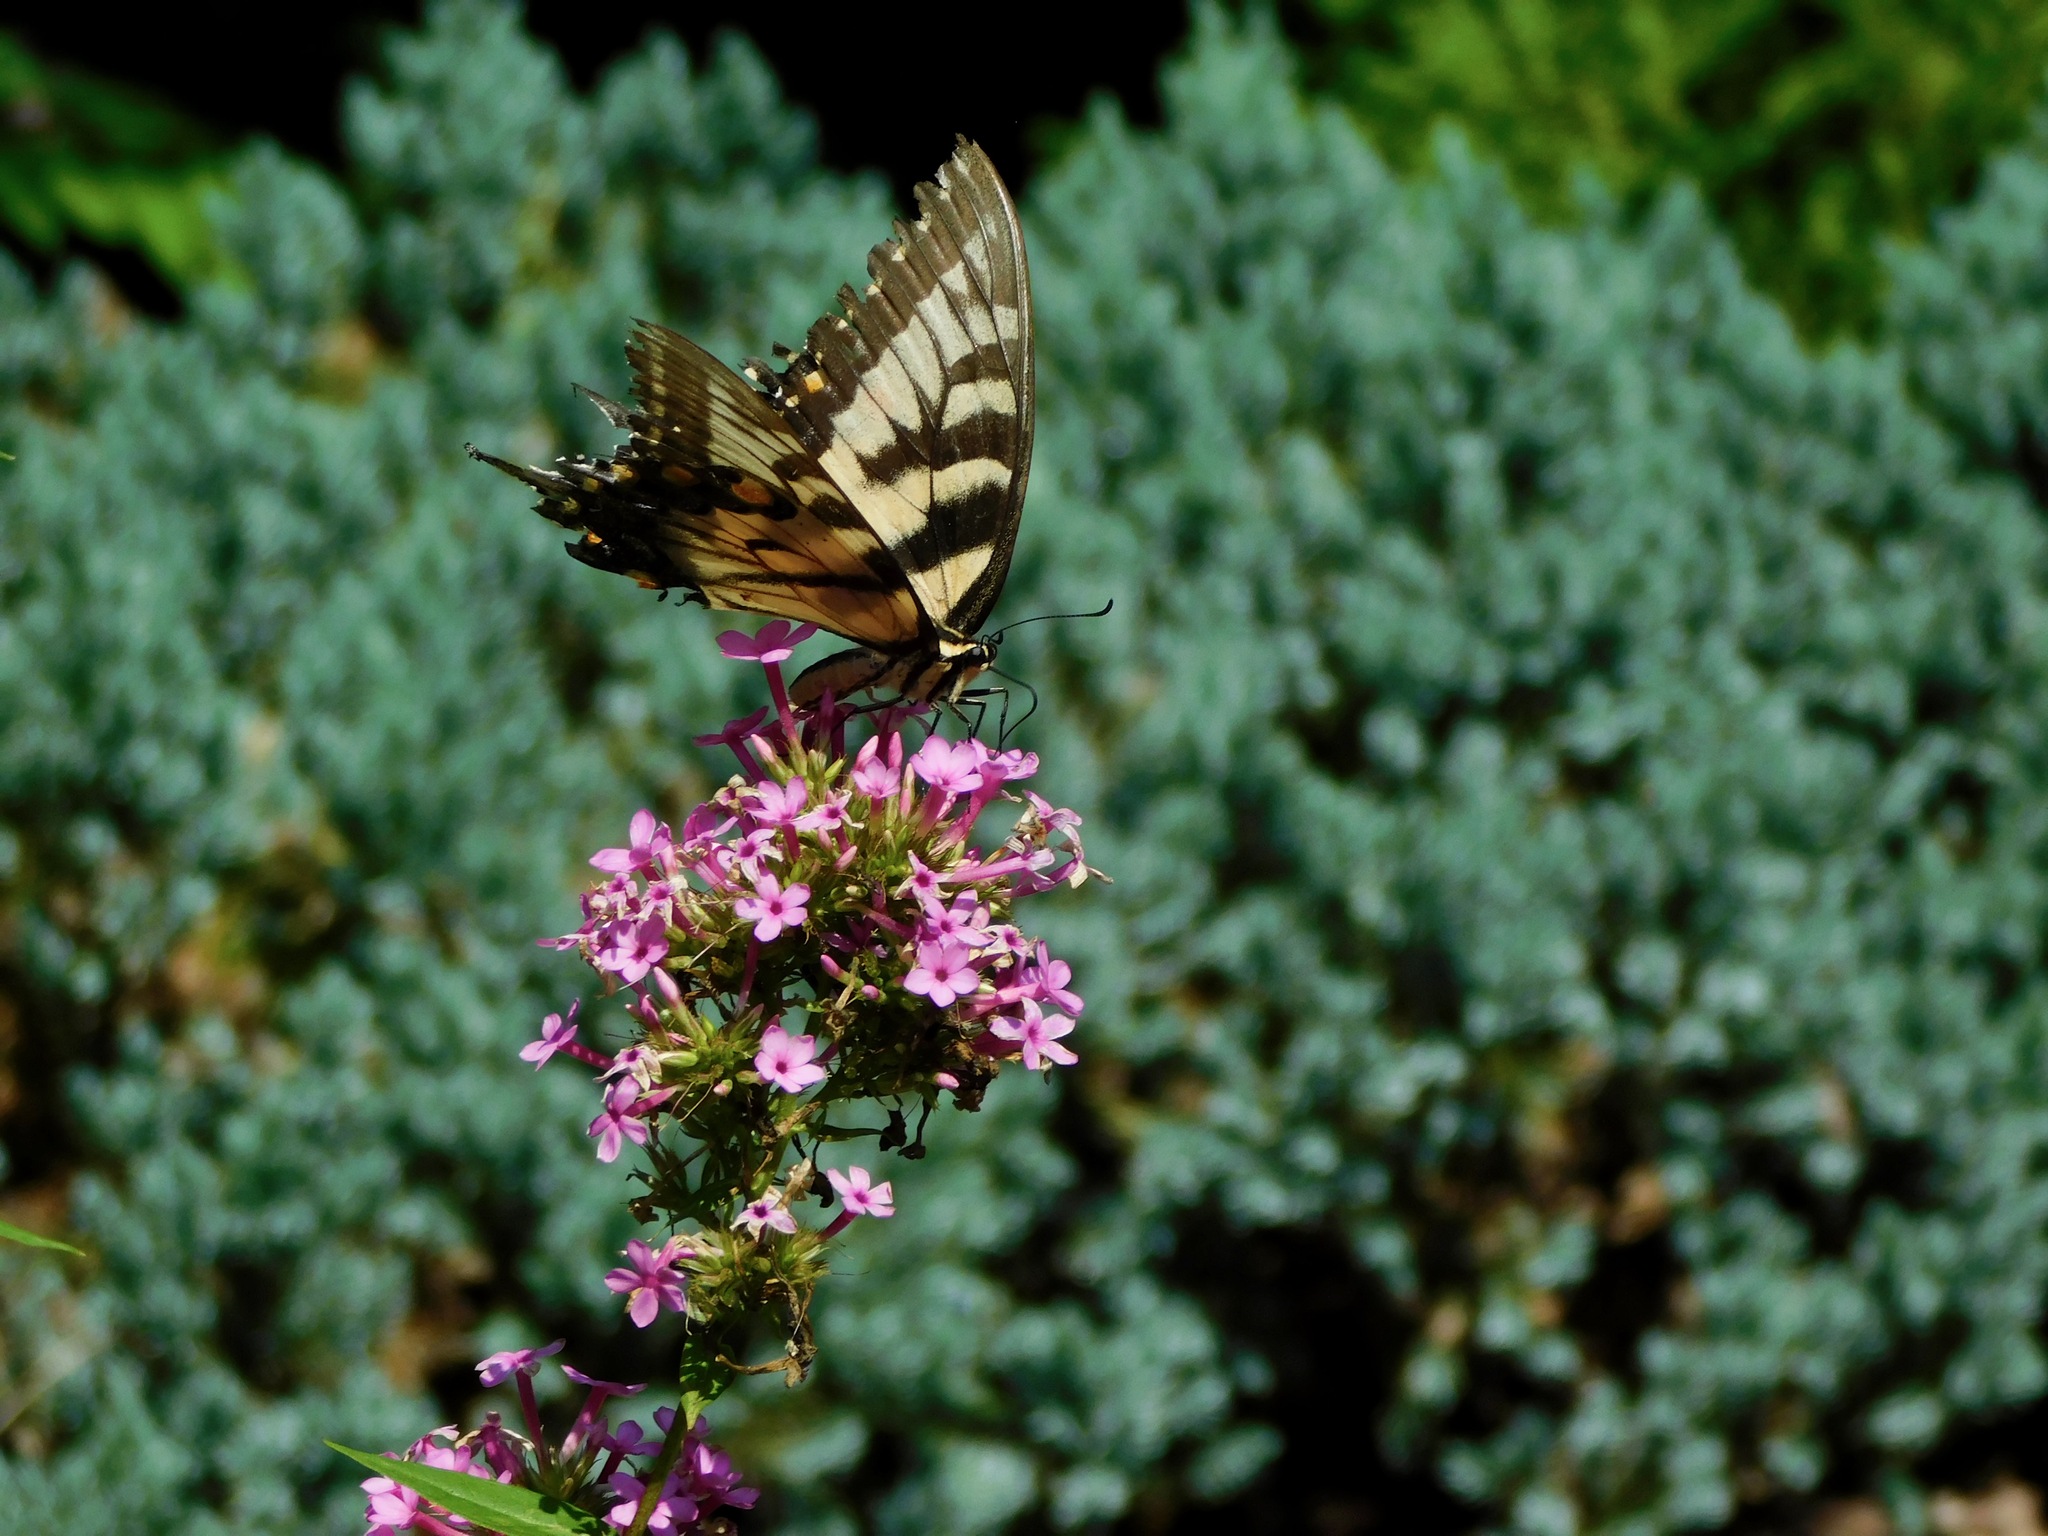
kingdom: Animalia
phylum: Arthropoda
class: Insecta
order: Lepidoptera
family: Papilionidae
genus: Papilio
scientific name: Papilio glaucus
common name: Tiger swallowtail
